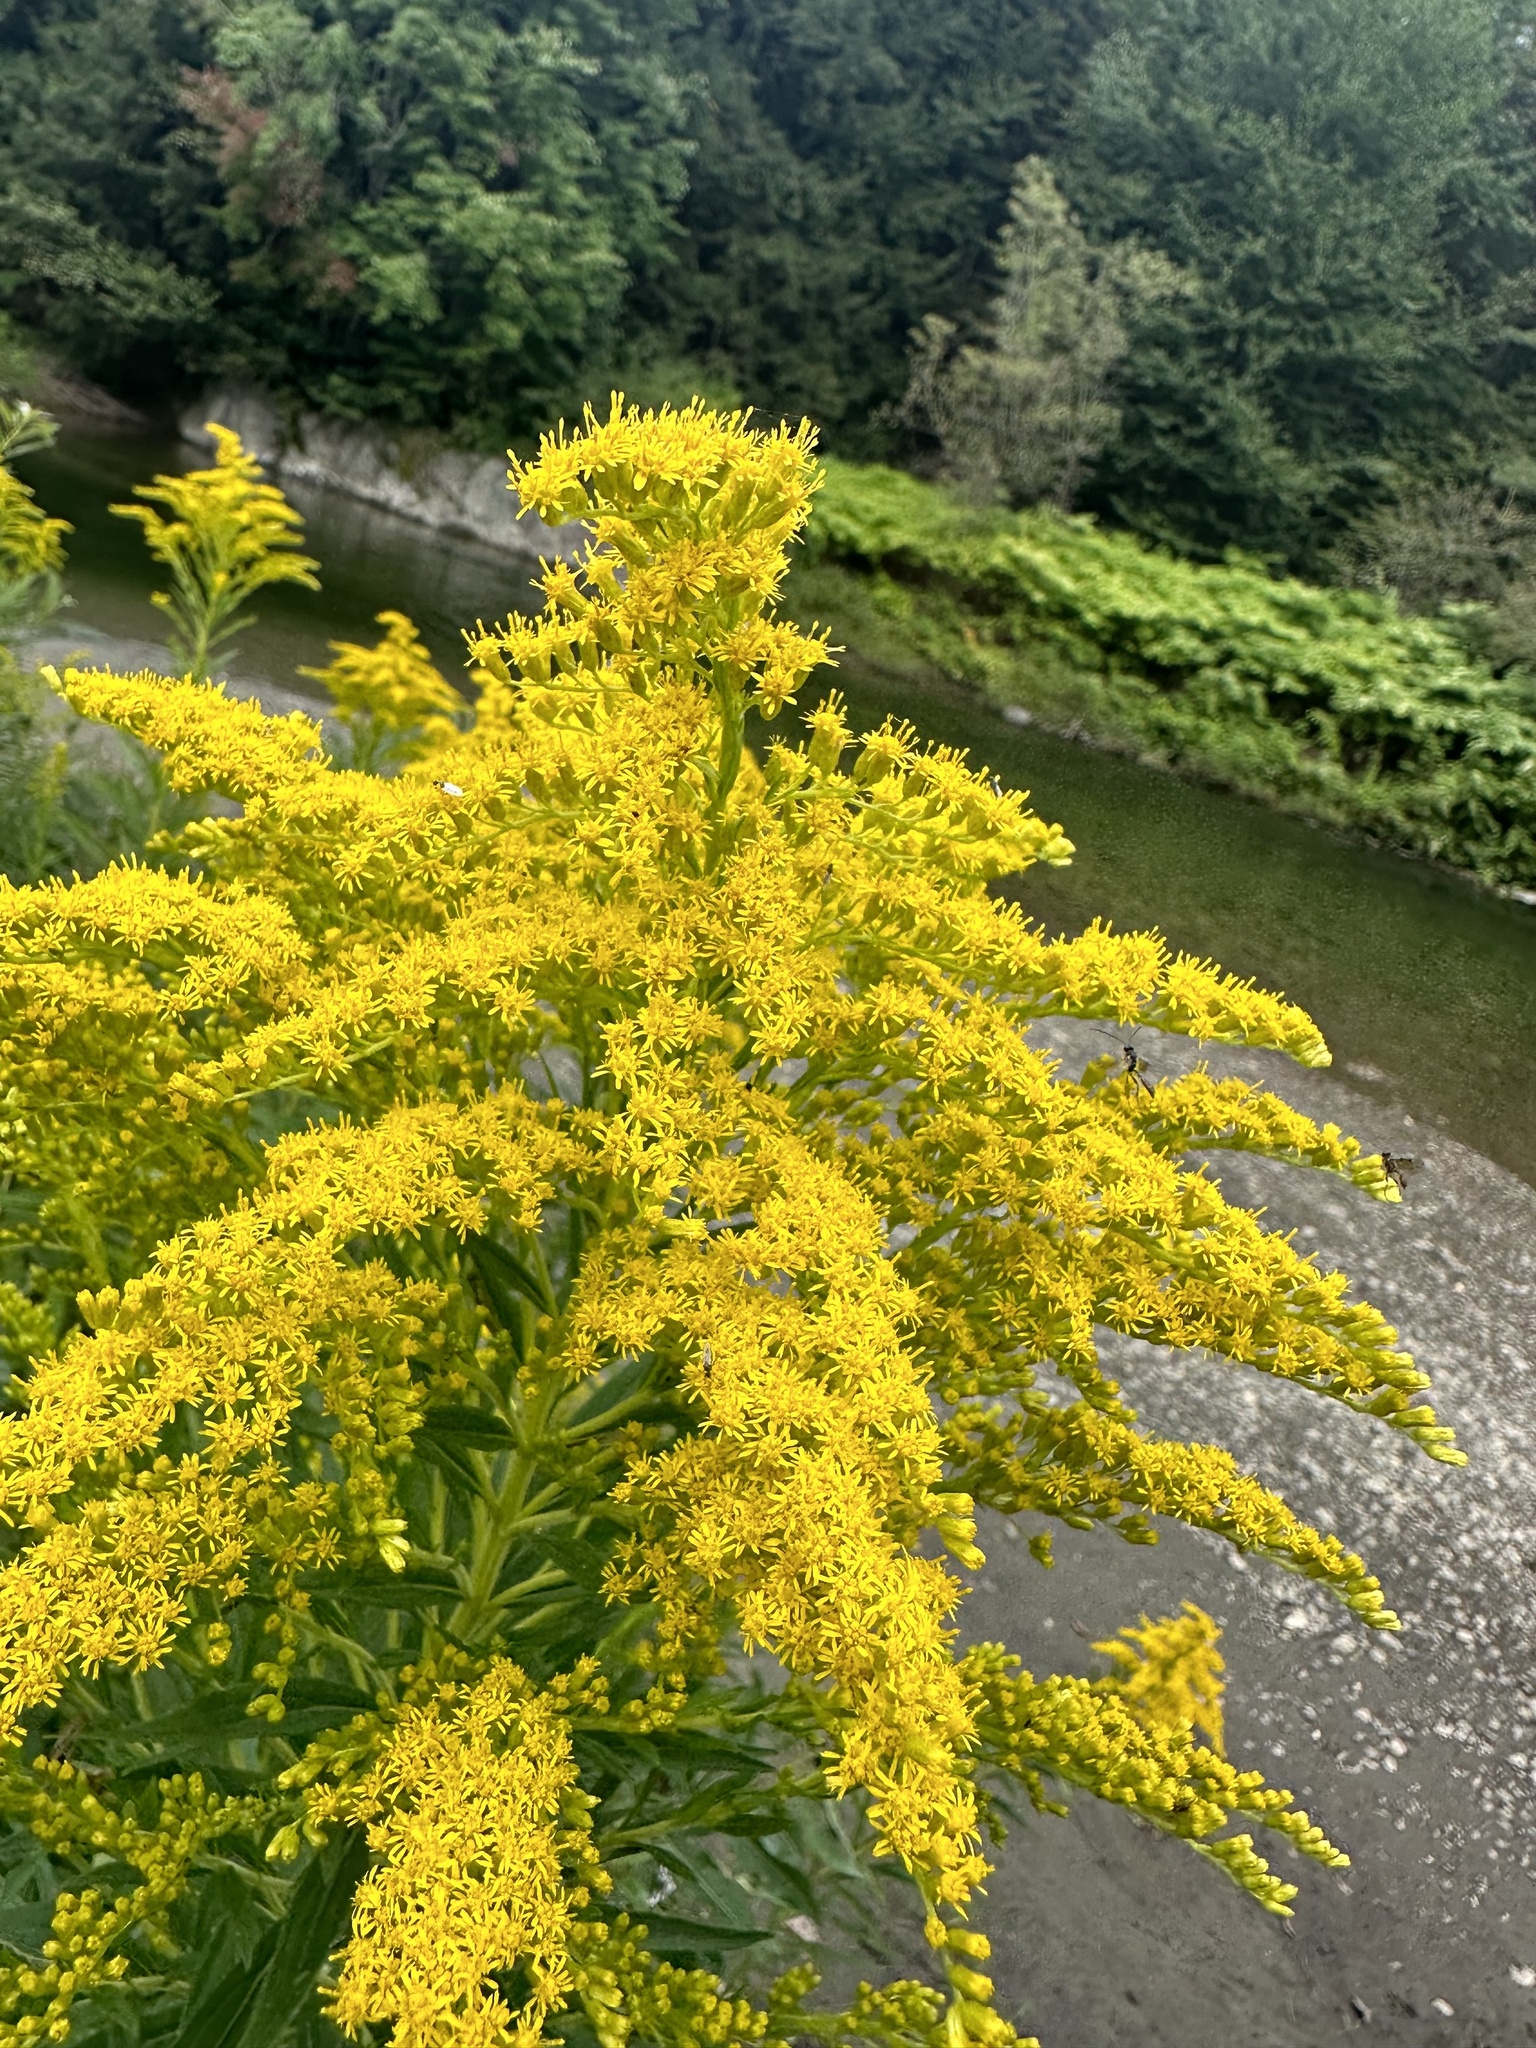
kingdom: Plantae
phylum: Tracheophyta
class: Magnoliopsida
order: Asterales
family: Asteraceae
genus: Solidago
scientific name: Solidago altissima
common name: Late goldenrod
